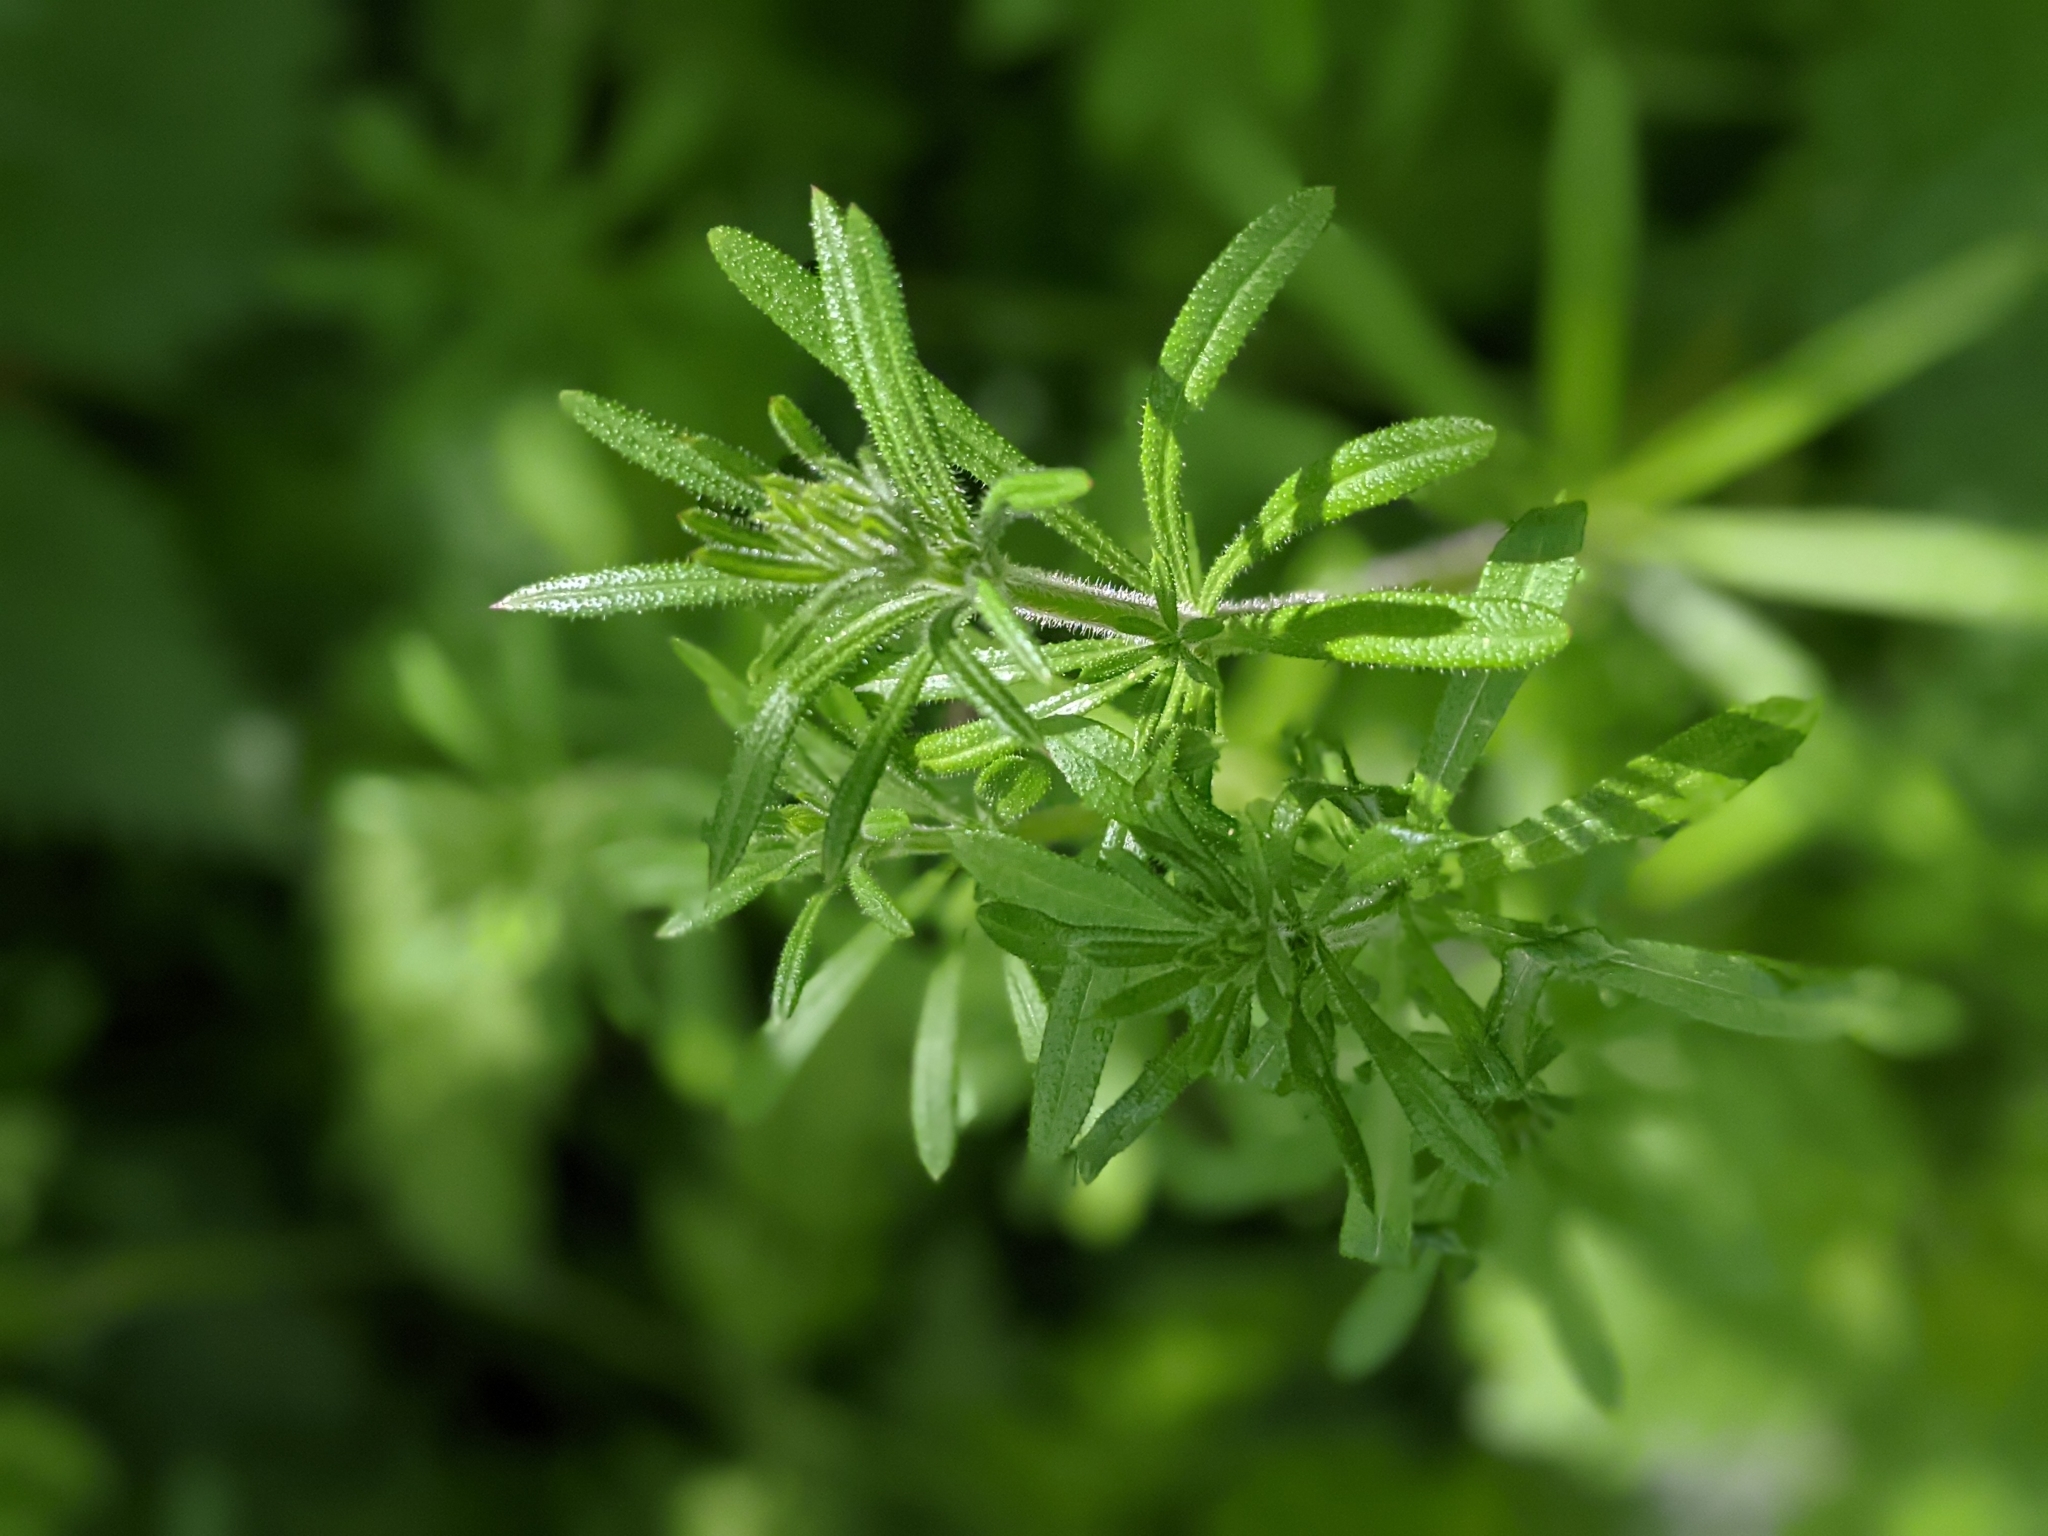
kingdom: Plantae
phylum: Tracheophyta
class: Magnoliopsida
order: Gentianales
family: Rubiaceae
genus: Galium
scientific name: Galium aparine
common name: Cleavers
